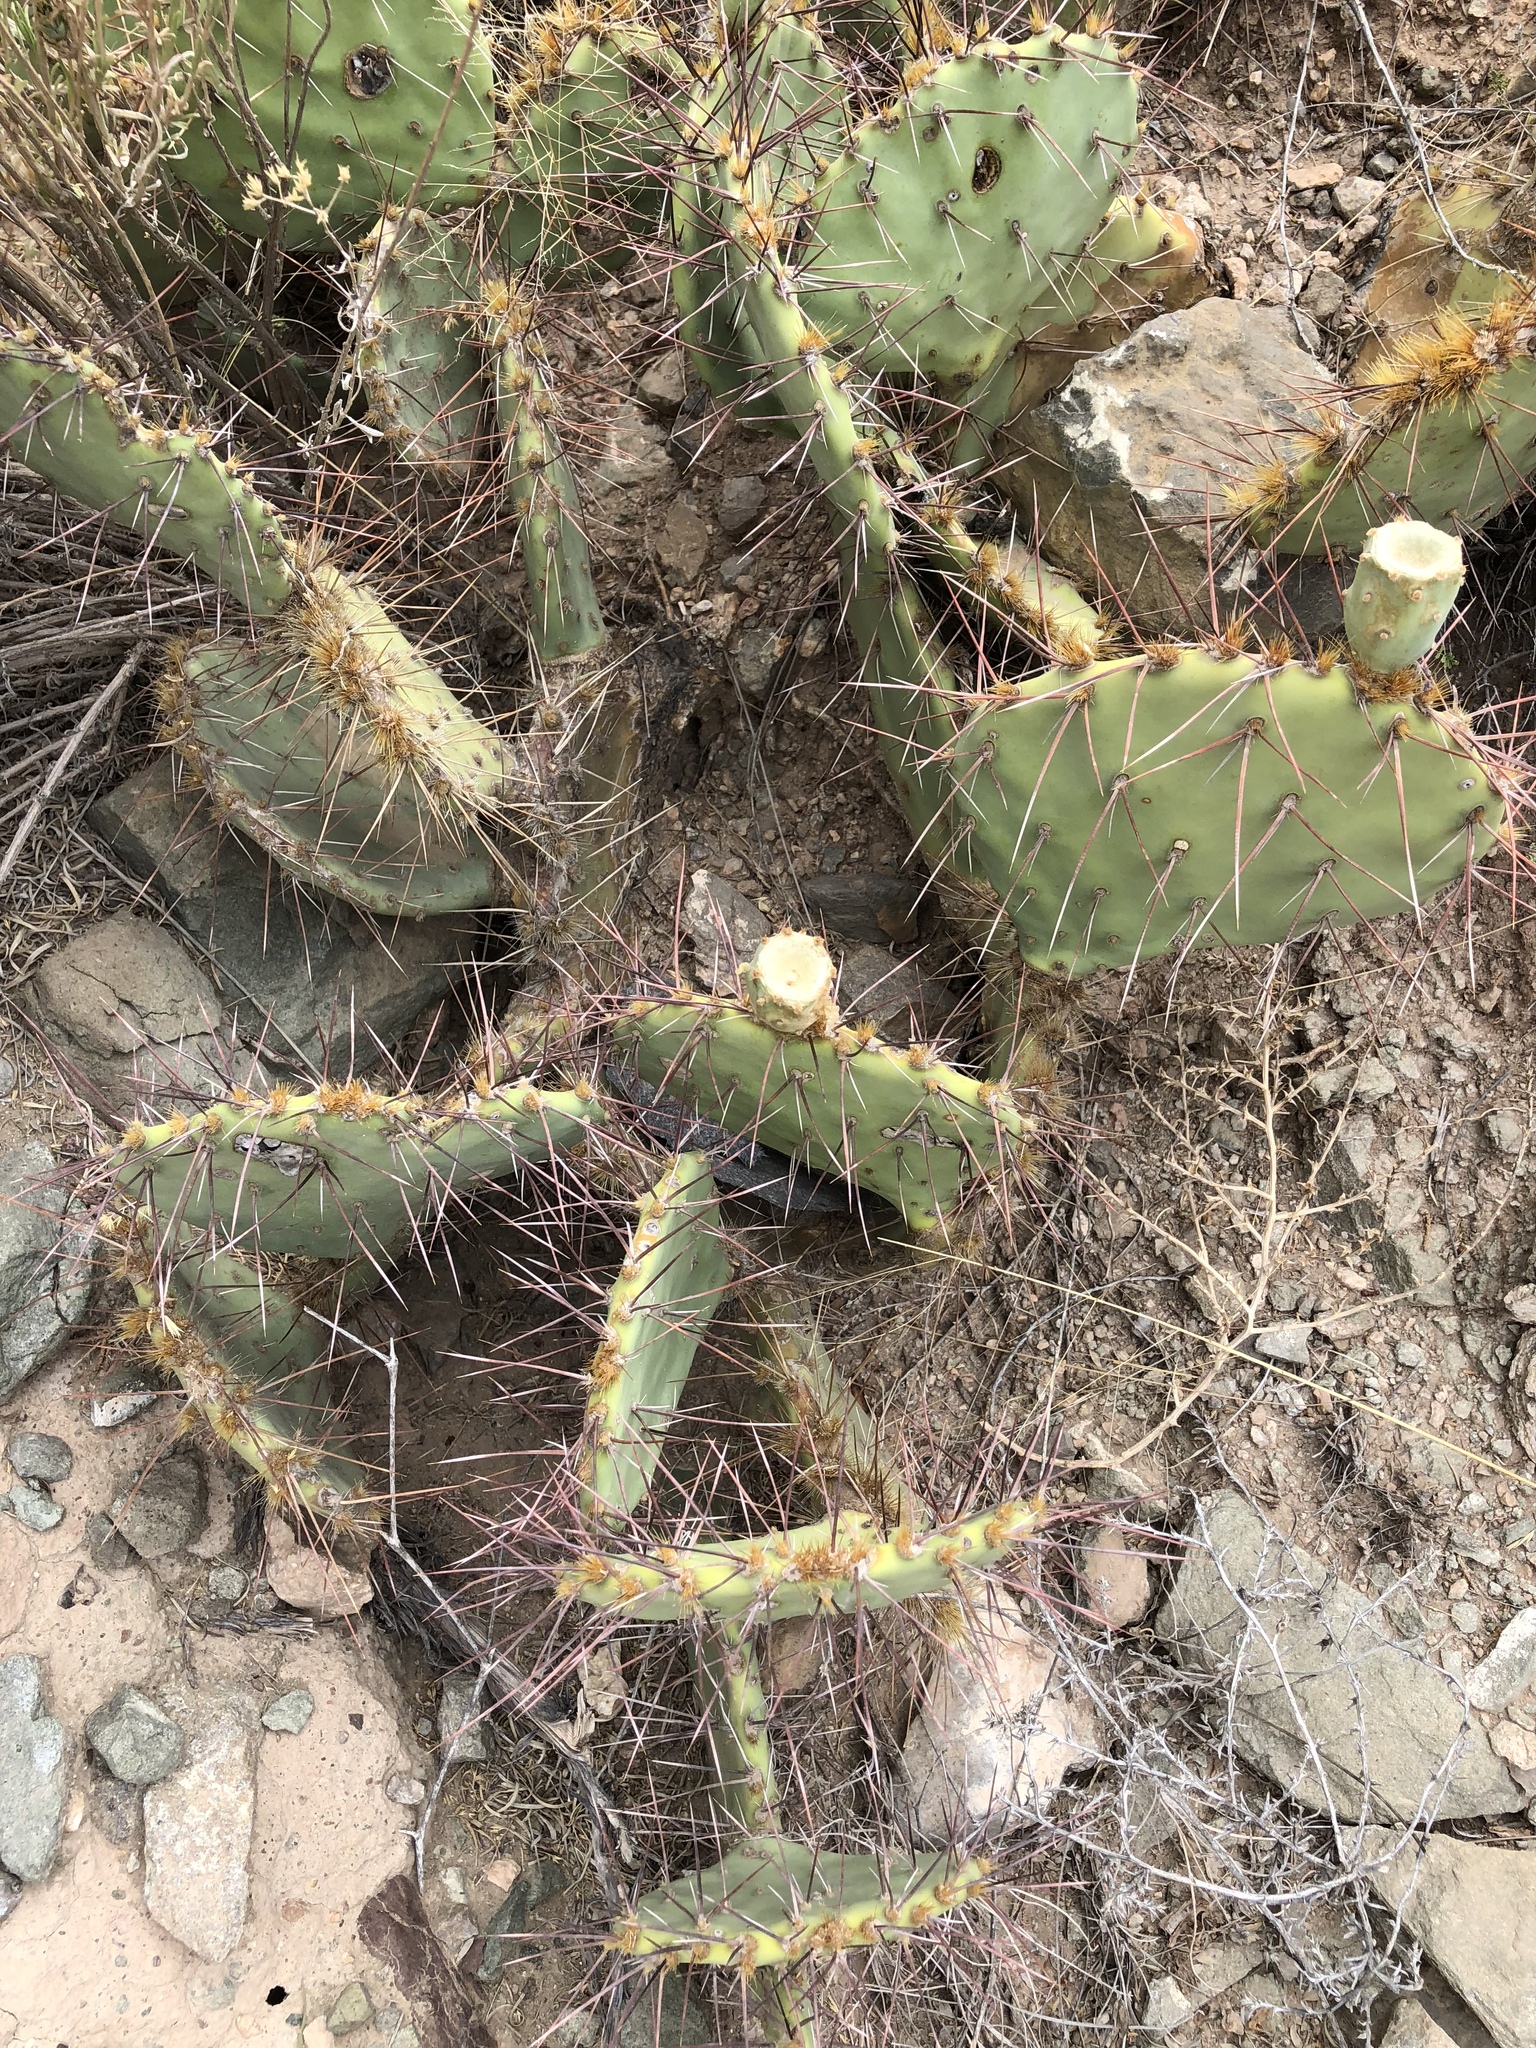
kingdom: Plantae
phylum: Tracheophyta
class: Magnoliopsida
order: Caryophyllales
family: Cactaceae
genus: Opuntia
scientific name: Opuntia phaeacantha
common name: New mexico prickly-pear
